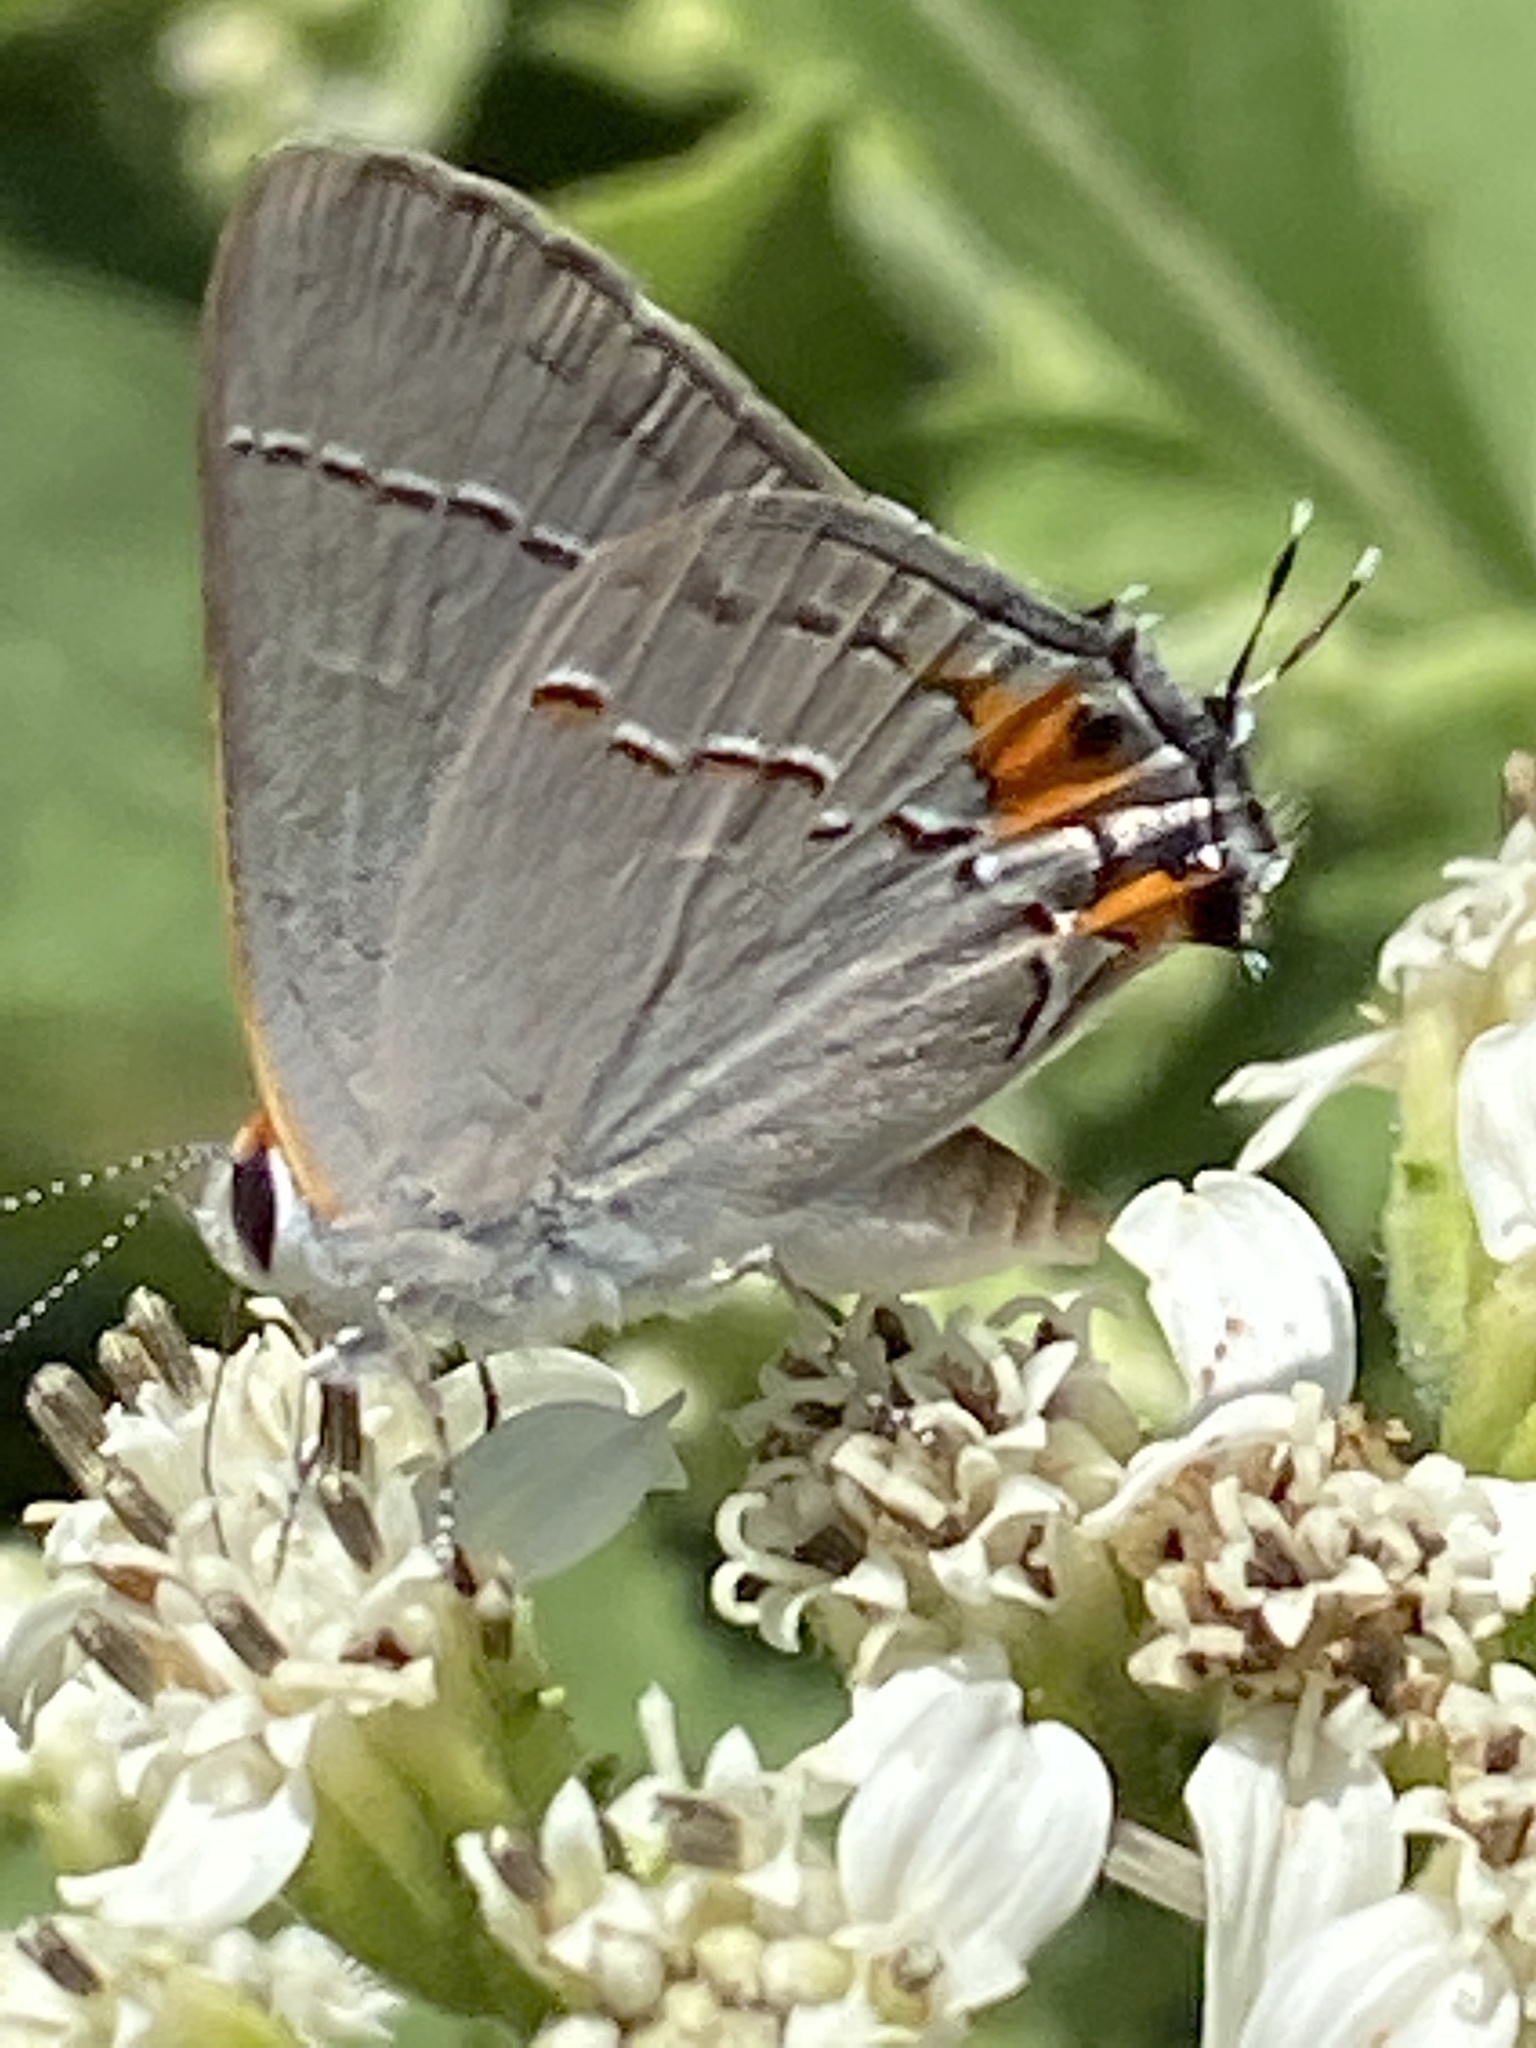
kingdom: Animalia
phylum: Arthropoda
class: Insecta
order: Lepidoptera
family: Lycaenidae
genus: Strymon
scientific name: Strymon melinus
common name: Gray hairstreak
